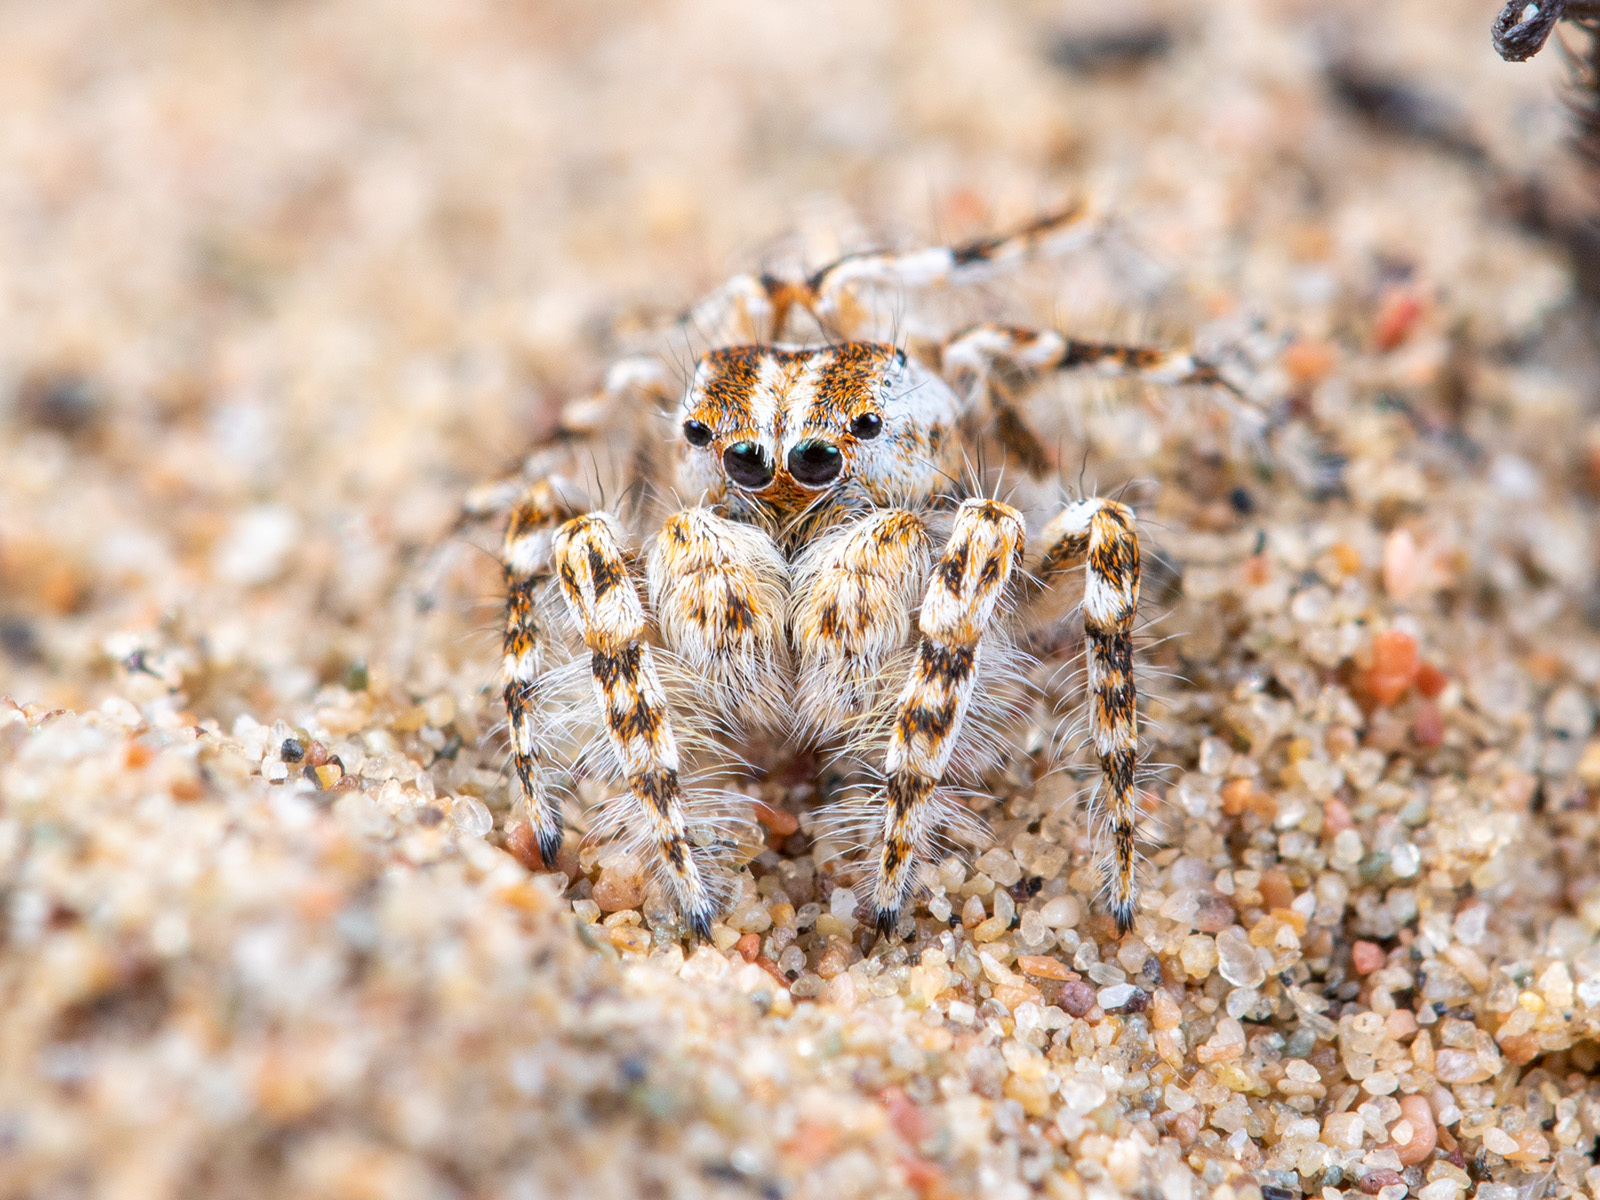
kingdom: Animalia
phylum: Arthropoda
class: Arachnida
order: Araneae
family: Salticidae
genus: Yllenus
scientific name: Yllenus turkestanicus
